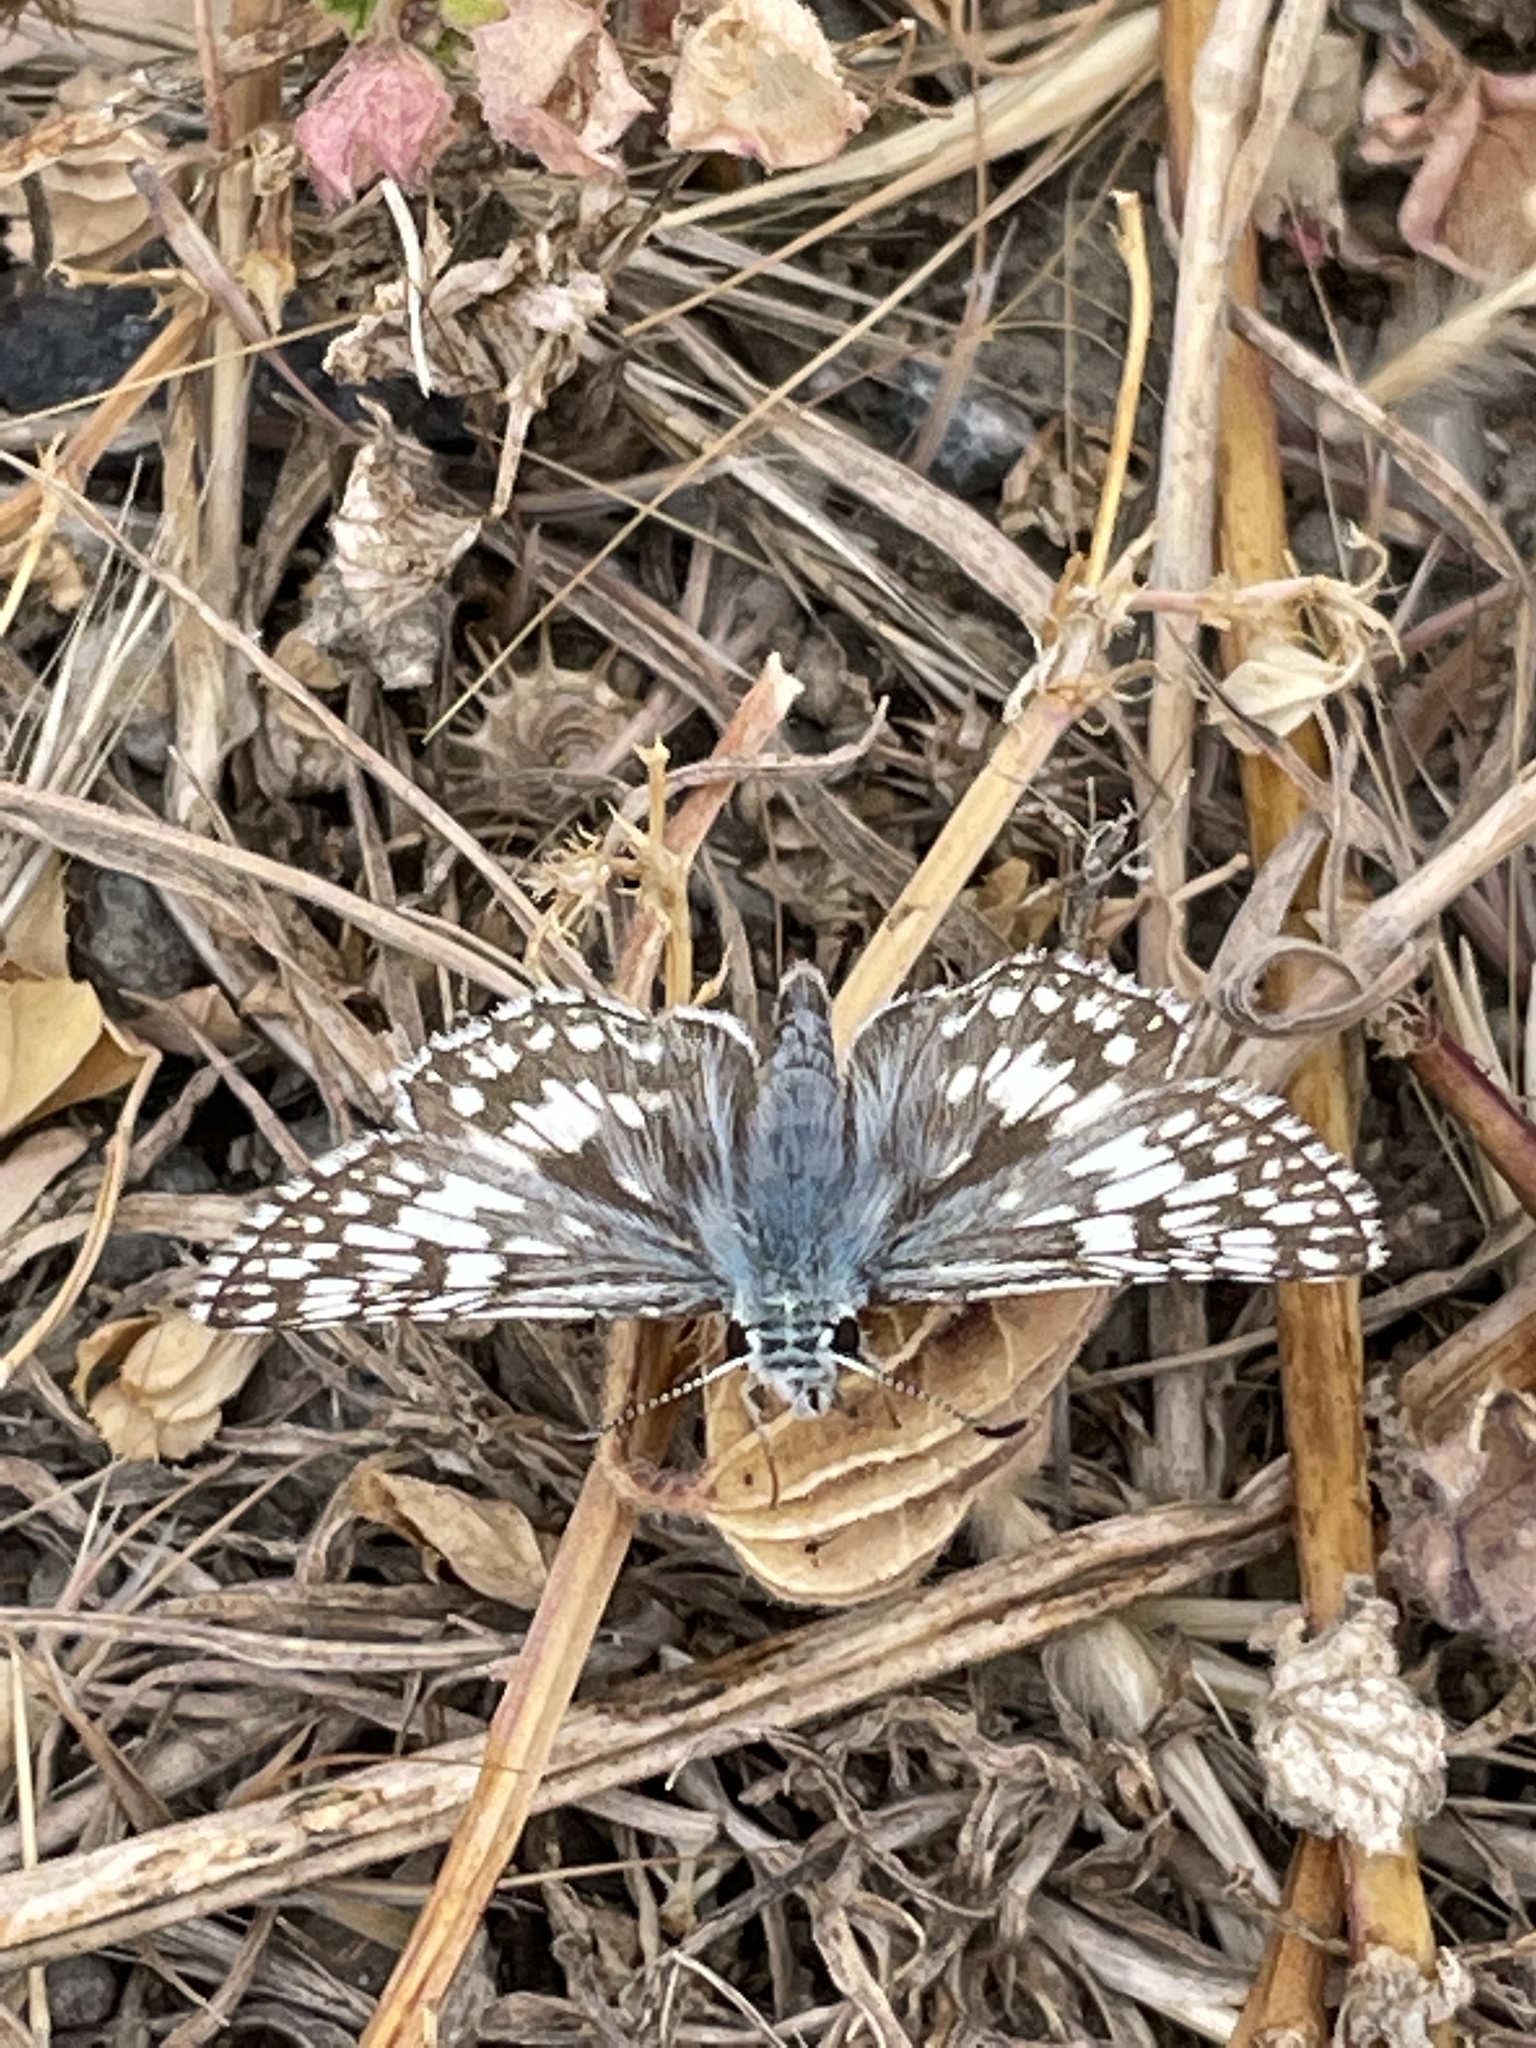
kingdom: Animalia
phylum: Arthropoda
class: Insecta
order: Lepidoptera
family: Hesperiidae
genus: Burnsius
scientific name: Burnsius communis
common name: Common checkered-skipper
